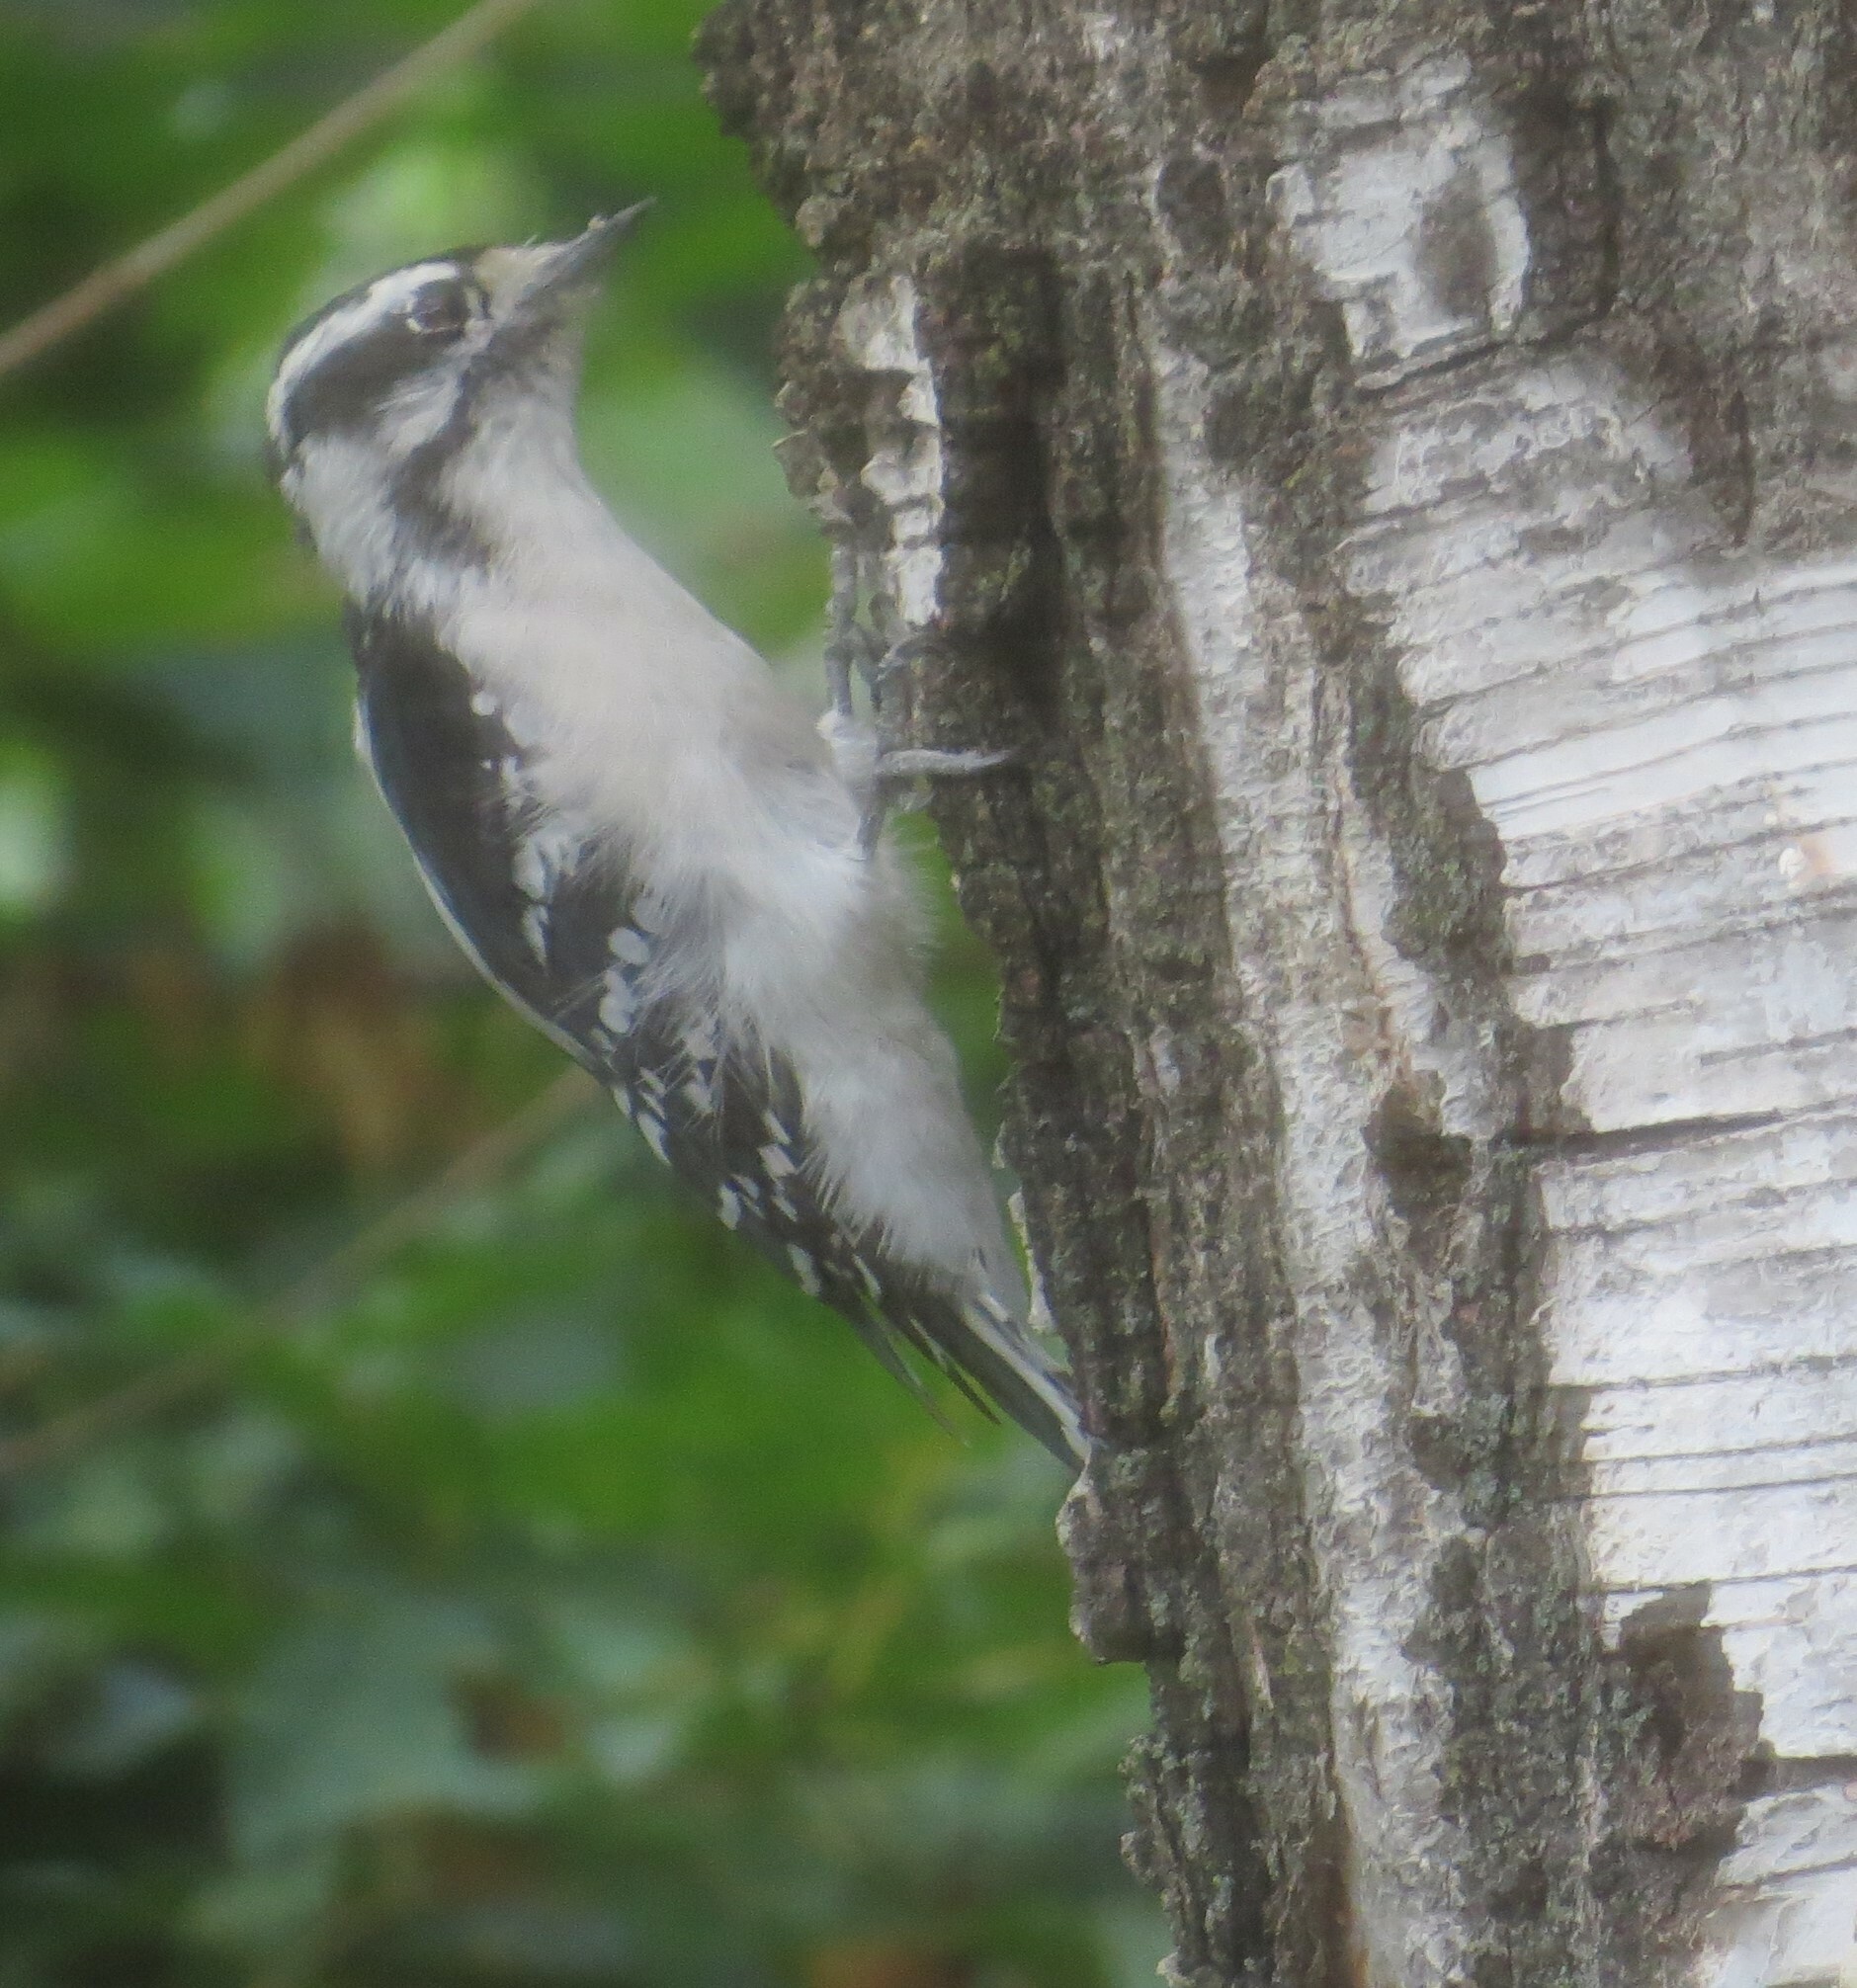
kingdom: Animalia
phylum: Chordata
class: Aves
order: Piciformes
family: Picidae
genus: Dryobates
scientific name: Dryobates pubescens
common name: Downy woodpecker
